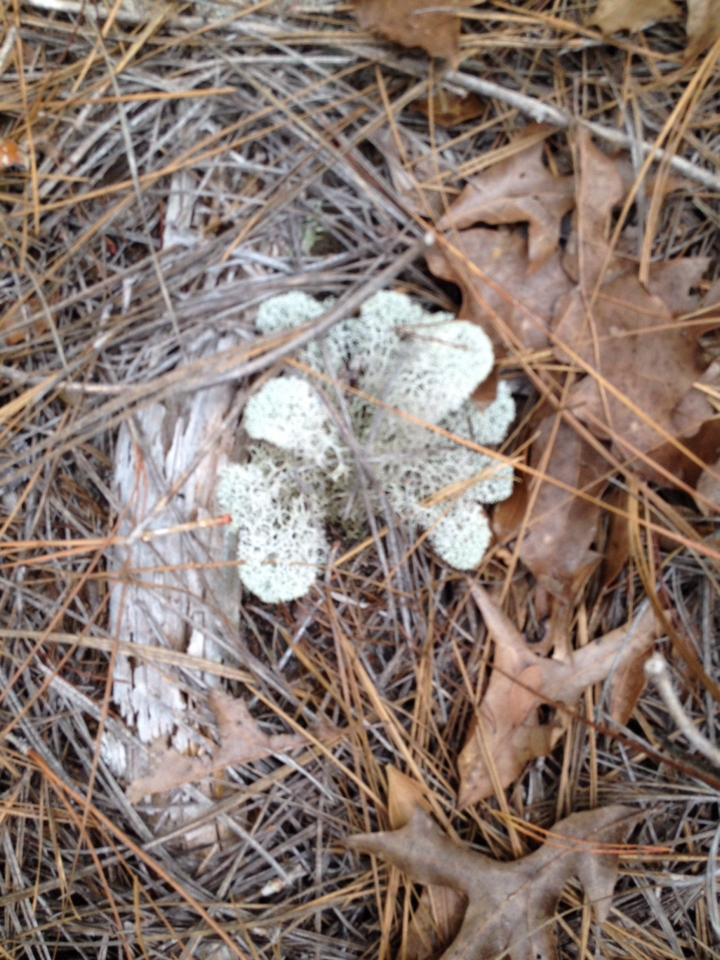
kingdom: Fungi
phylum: Ascomycota
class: Lecanoromycetes
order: Lecanorales
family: Cladoniaceae
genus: Cladonia
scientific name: Cladonia evansii
